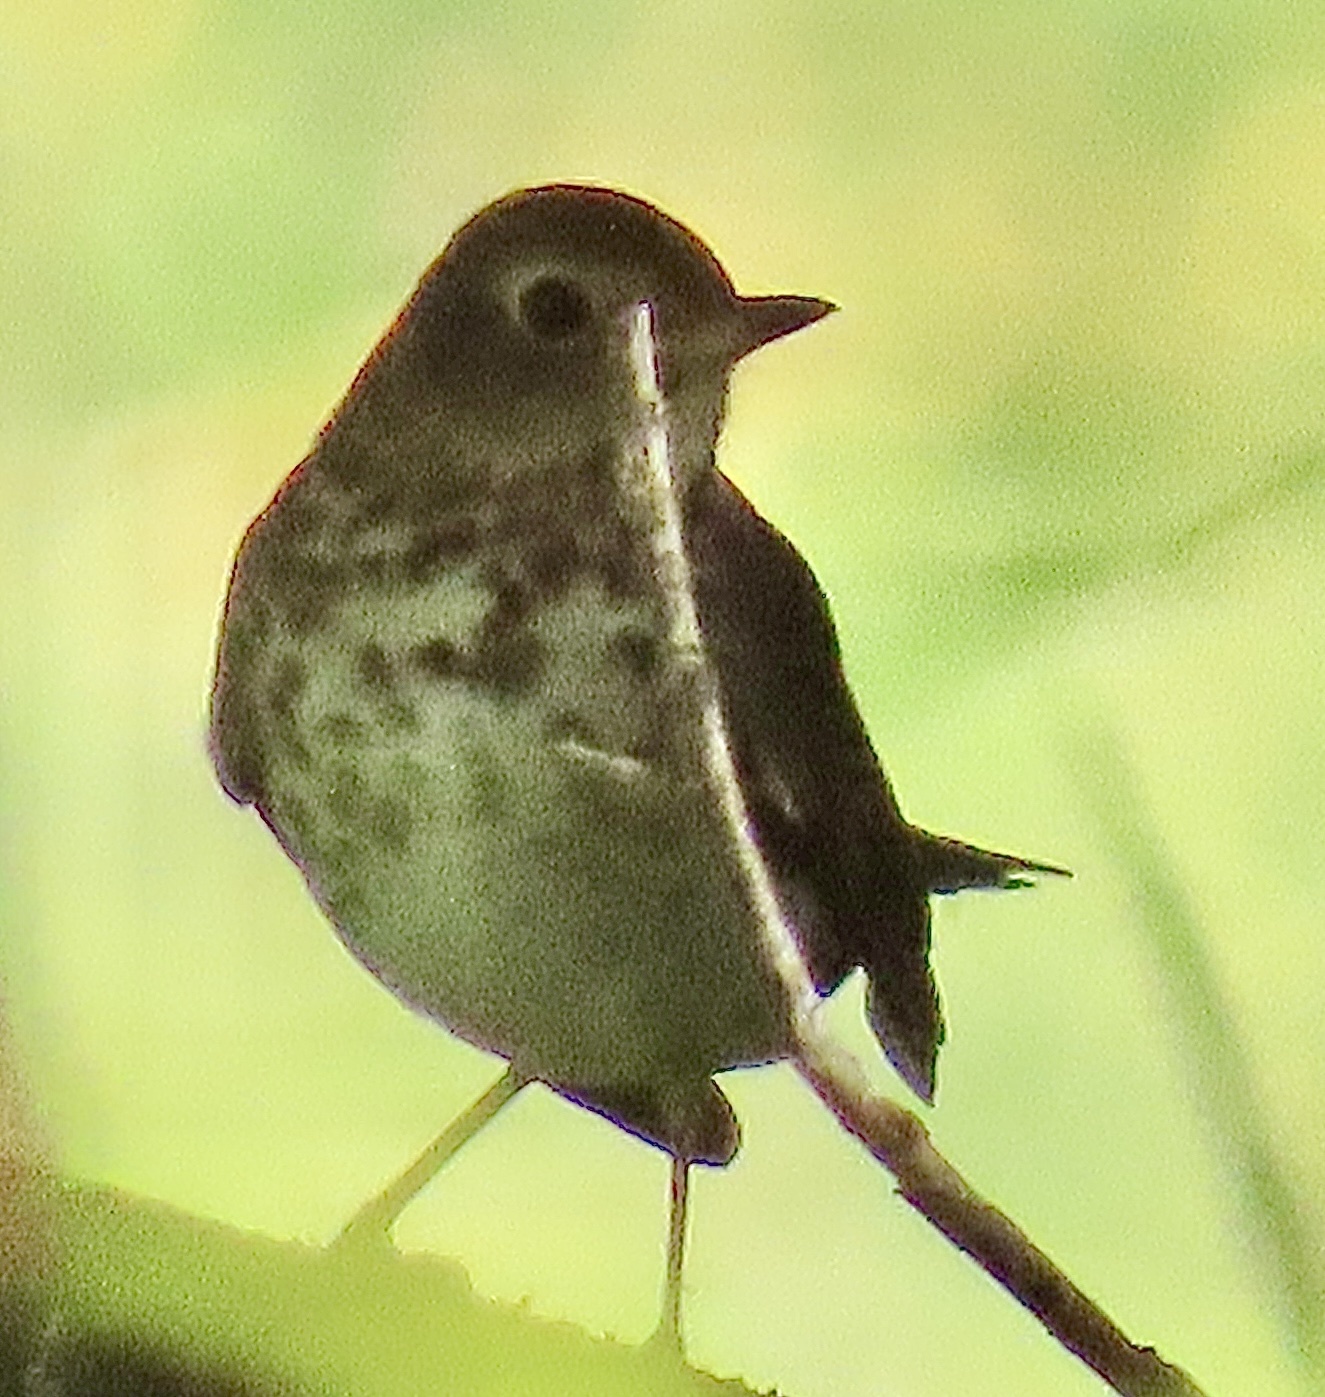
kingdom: Animalia
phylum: Chordata
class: Aves
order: Passeriformes
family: Turdidae
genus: Catharus
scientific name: Catharus ustulatus
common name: Swainson's thrush
